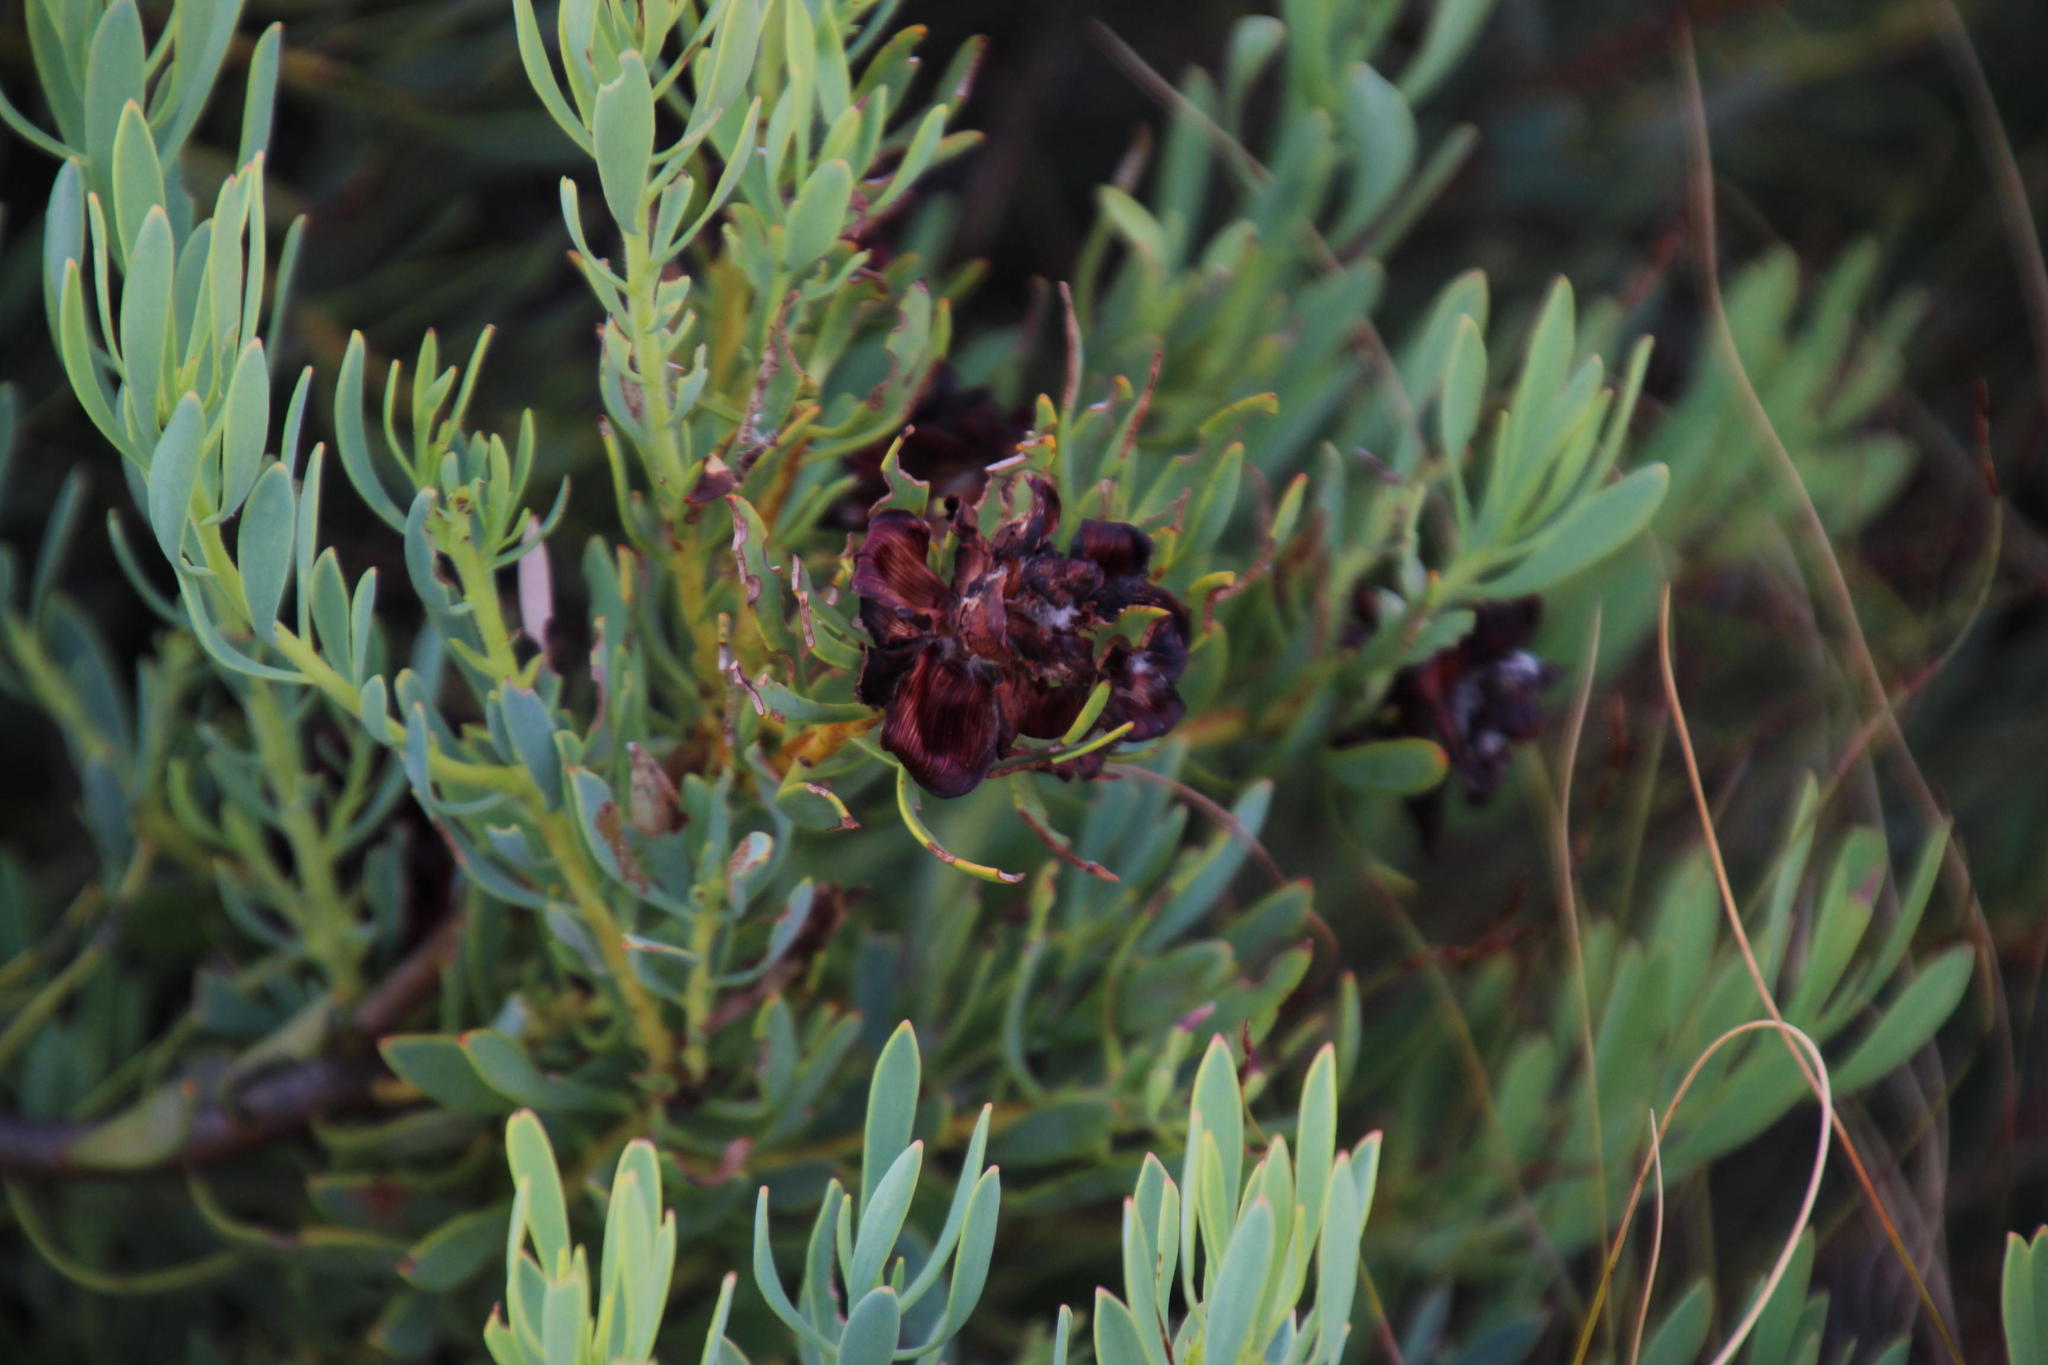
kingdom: Plantae
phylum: Tracheophyta
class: Magnoliopsida
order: Proteales
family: Proteaceae
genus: Leucadendron
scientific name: Leucadendron glaberrimum
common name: Common oily conebush
